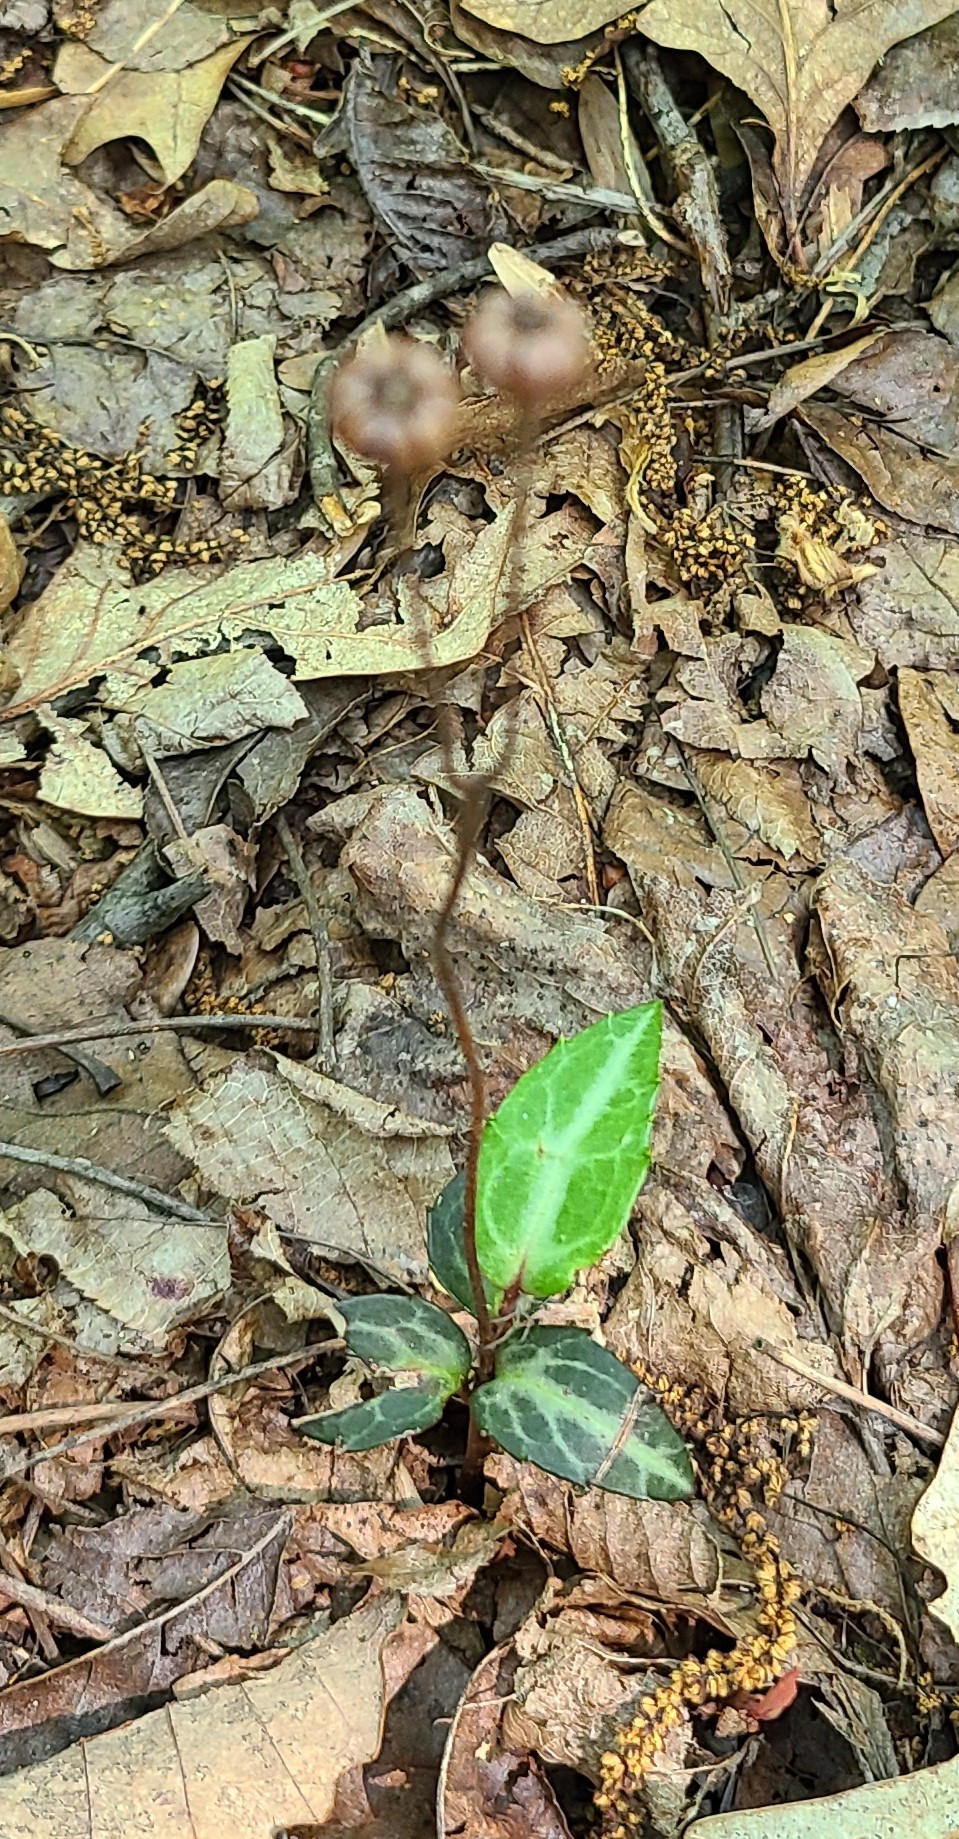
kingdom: Plantae
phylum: Tracheophyta
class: Magnoliopsida
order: Ericales
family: Ericaceae
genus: Chimaphila
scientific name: Chimaphila maculata
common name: Spotted pipsissewa
